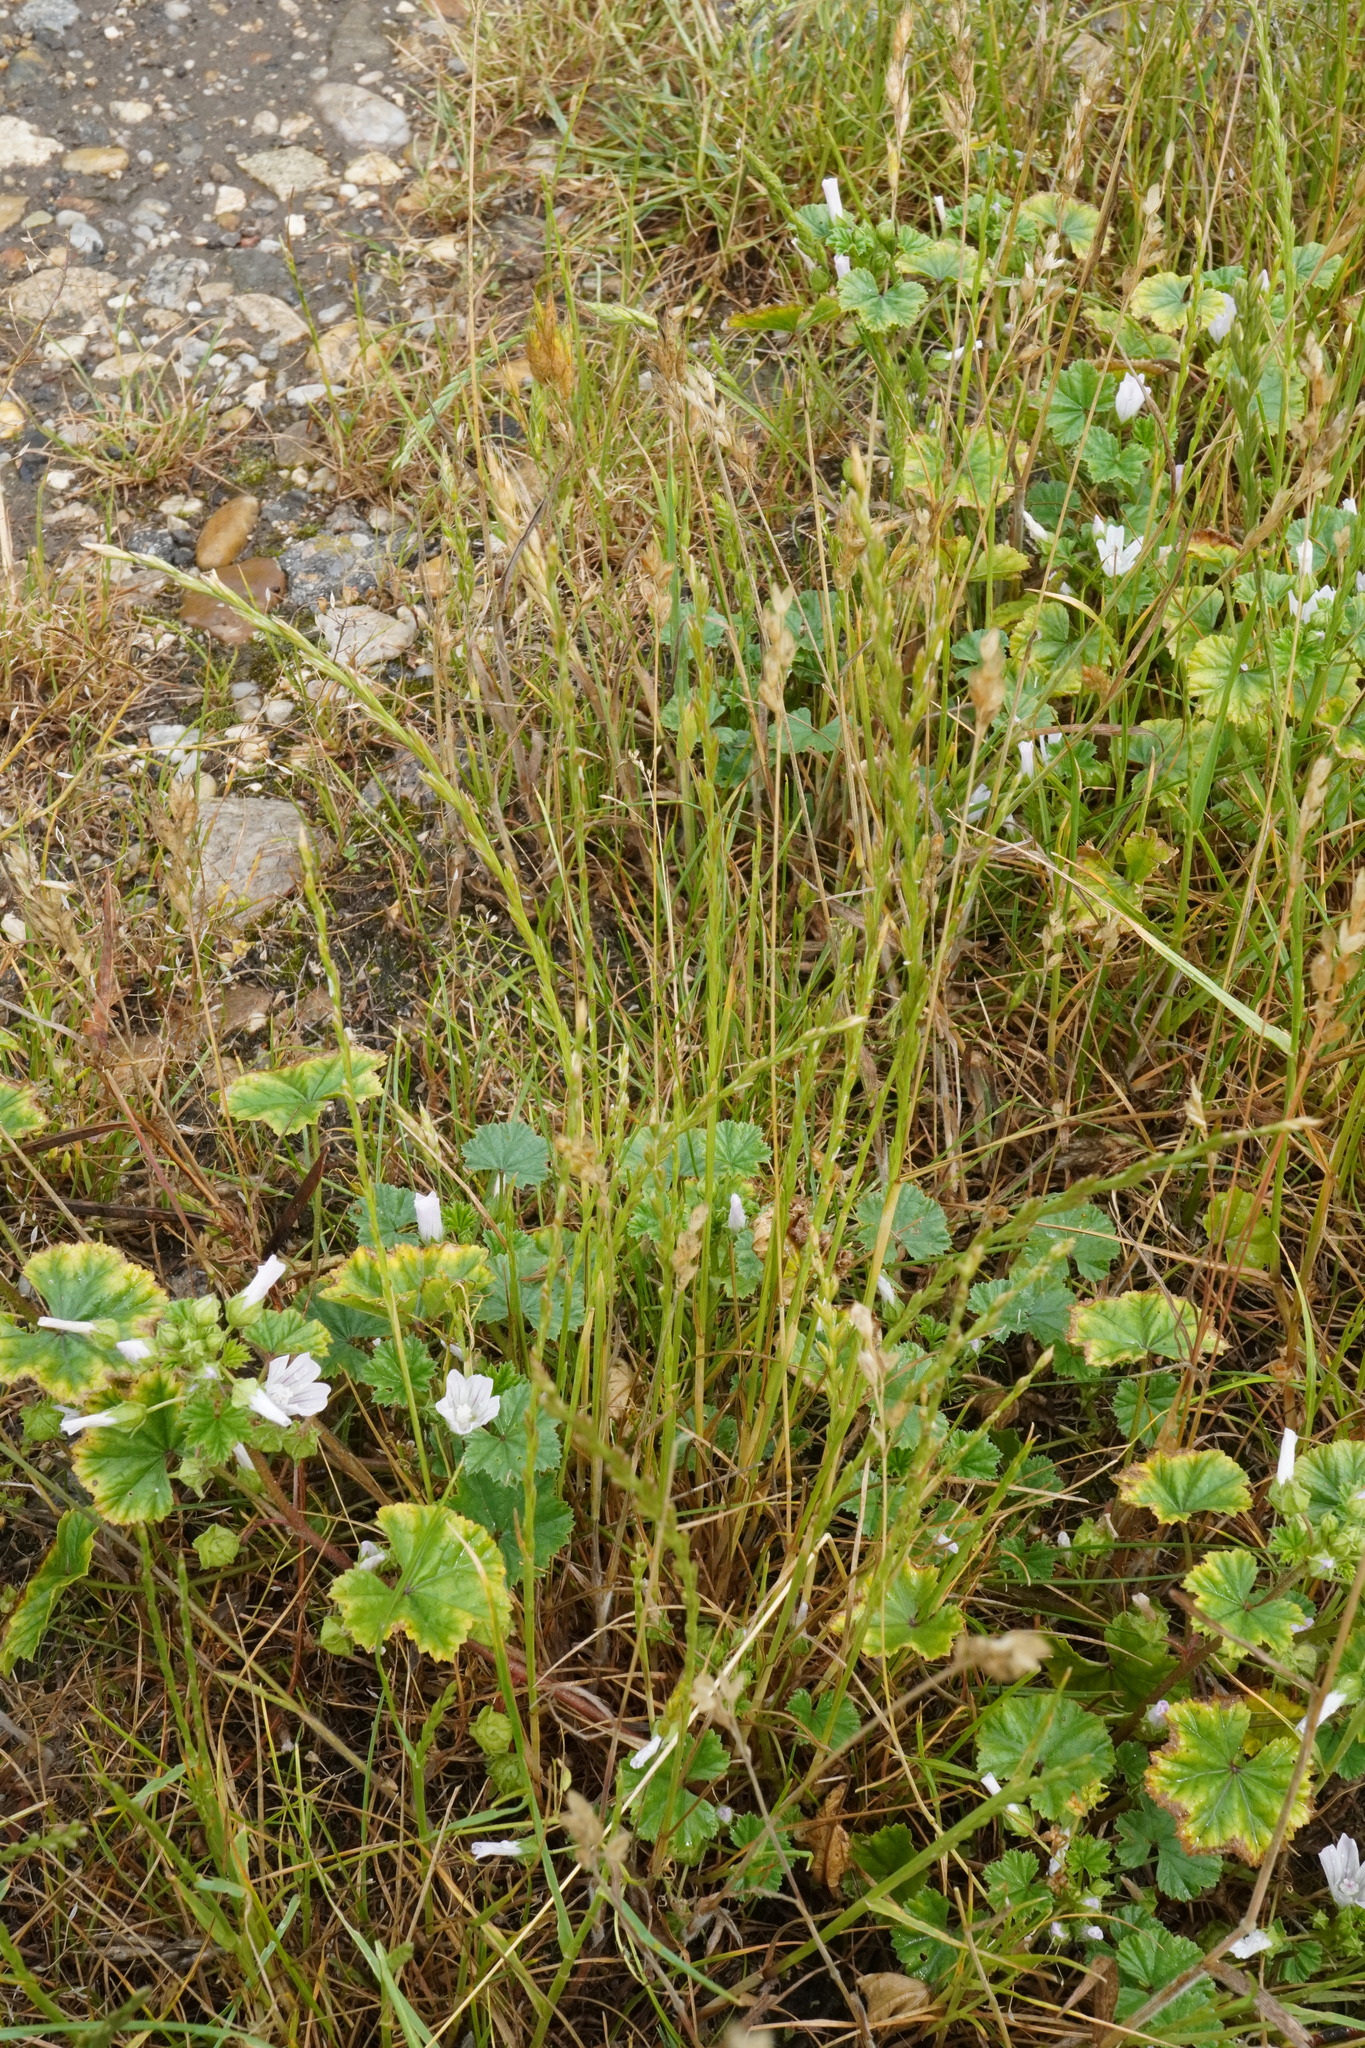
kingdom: Plantae
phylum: Tracheophyta
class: Liliopsida
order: Poales
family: Poaceae
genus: Lolium
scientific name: Lolium perenne
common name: Perennial ryegrass
